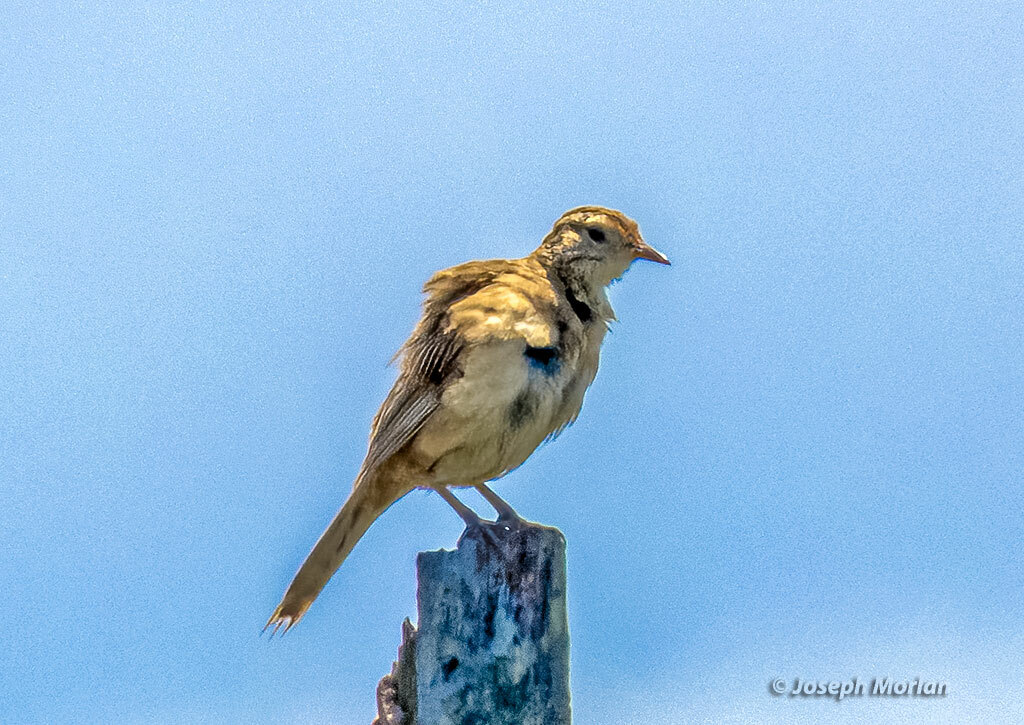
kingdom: Animalia
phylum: Chordata
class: Aves
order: Passeriformes
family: Furnariidae
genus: Anumbius
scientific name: Anumbius annumbi
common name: Firewood-gatherer
